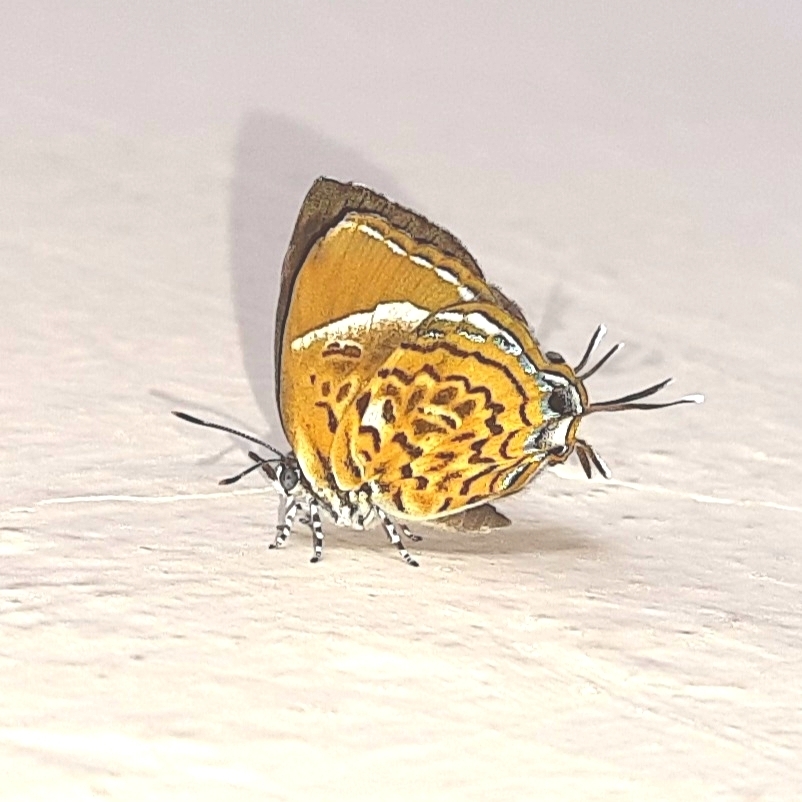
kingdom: Animalia
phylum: Arthropoda
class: Insecta
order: Lepidoptera
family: Lycaenidae
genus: Rathinda
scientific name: Rathinda amor
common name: Monkey puzzle
